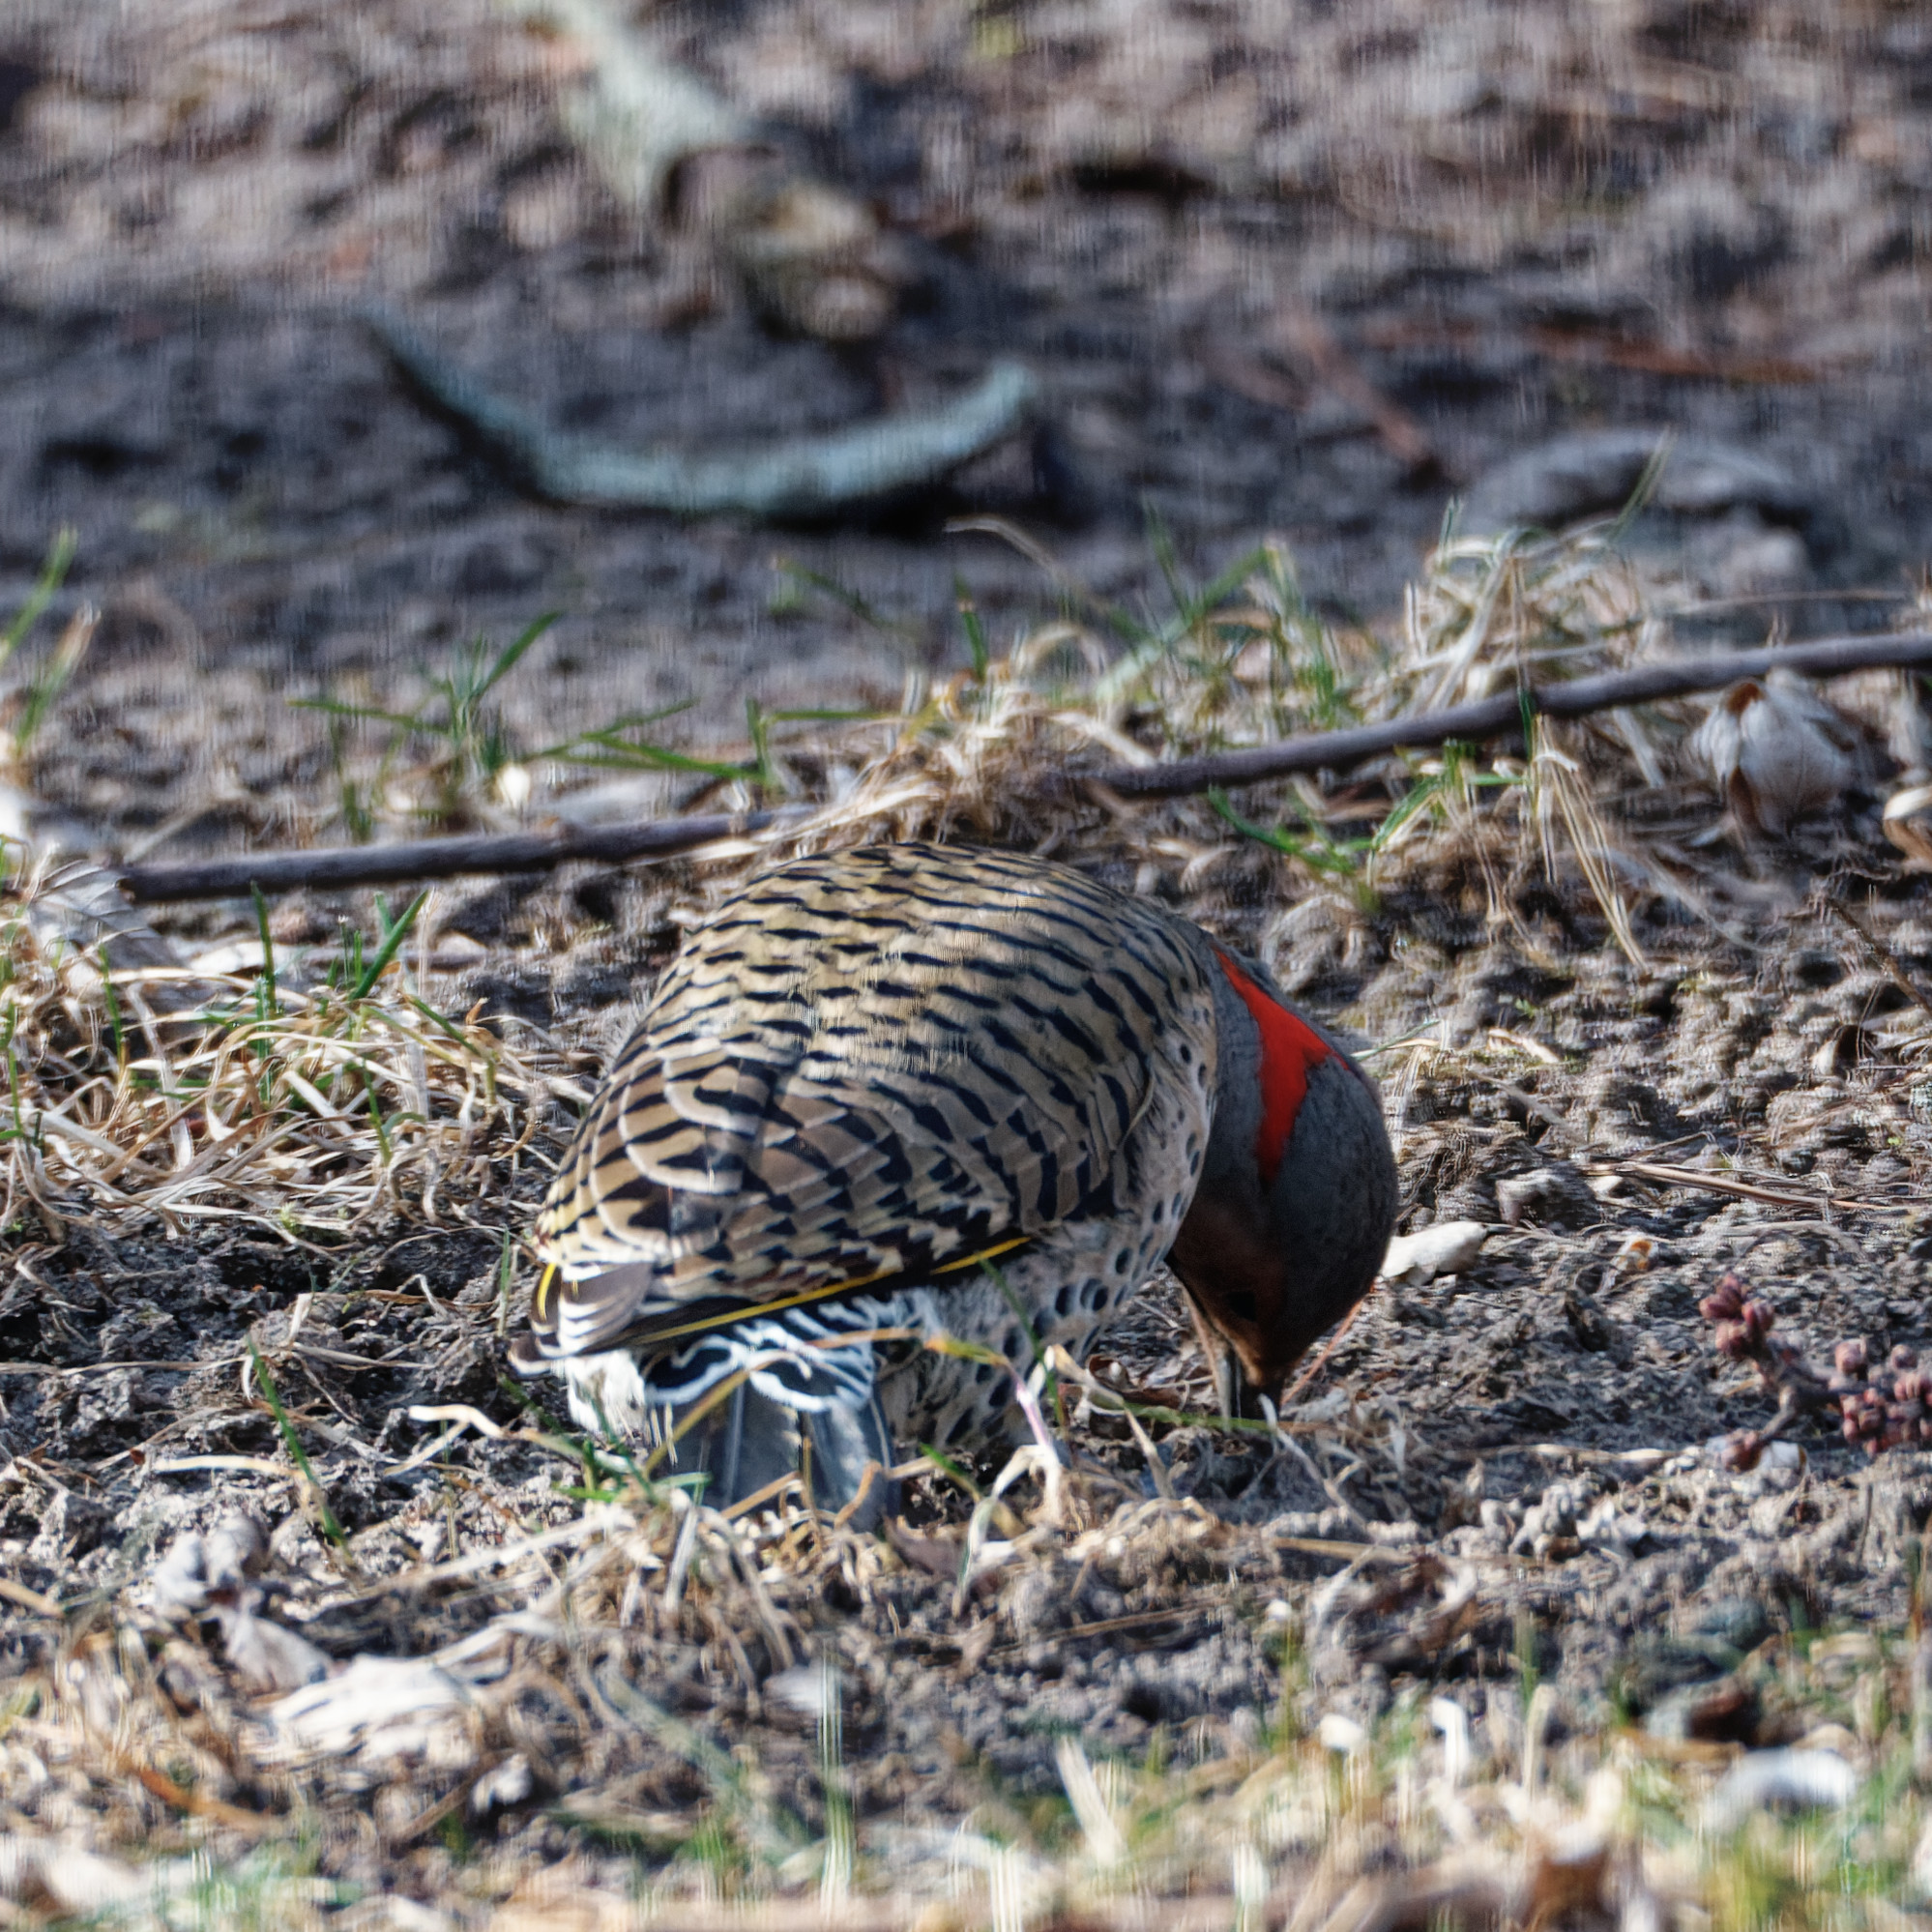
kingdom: Animalia
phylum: Chordata
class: Aves
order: Piciformes
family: Picidae
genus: Colaptes
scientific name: Colaptes auratus
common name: Northern flicker
